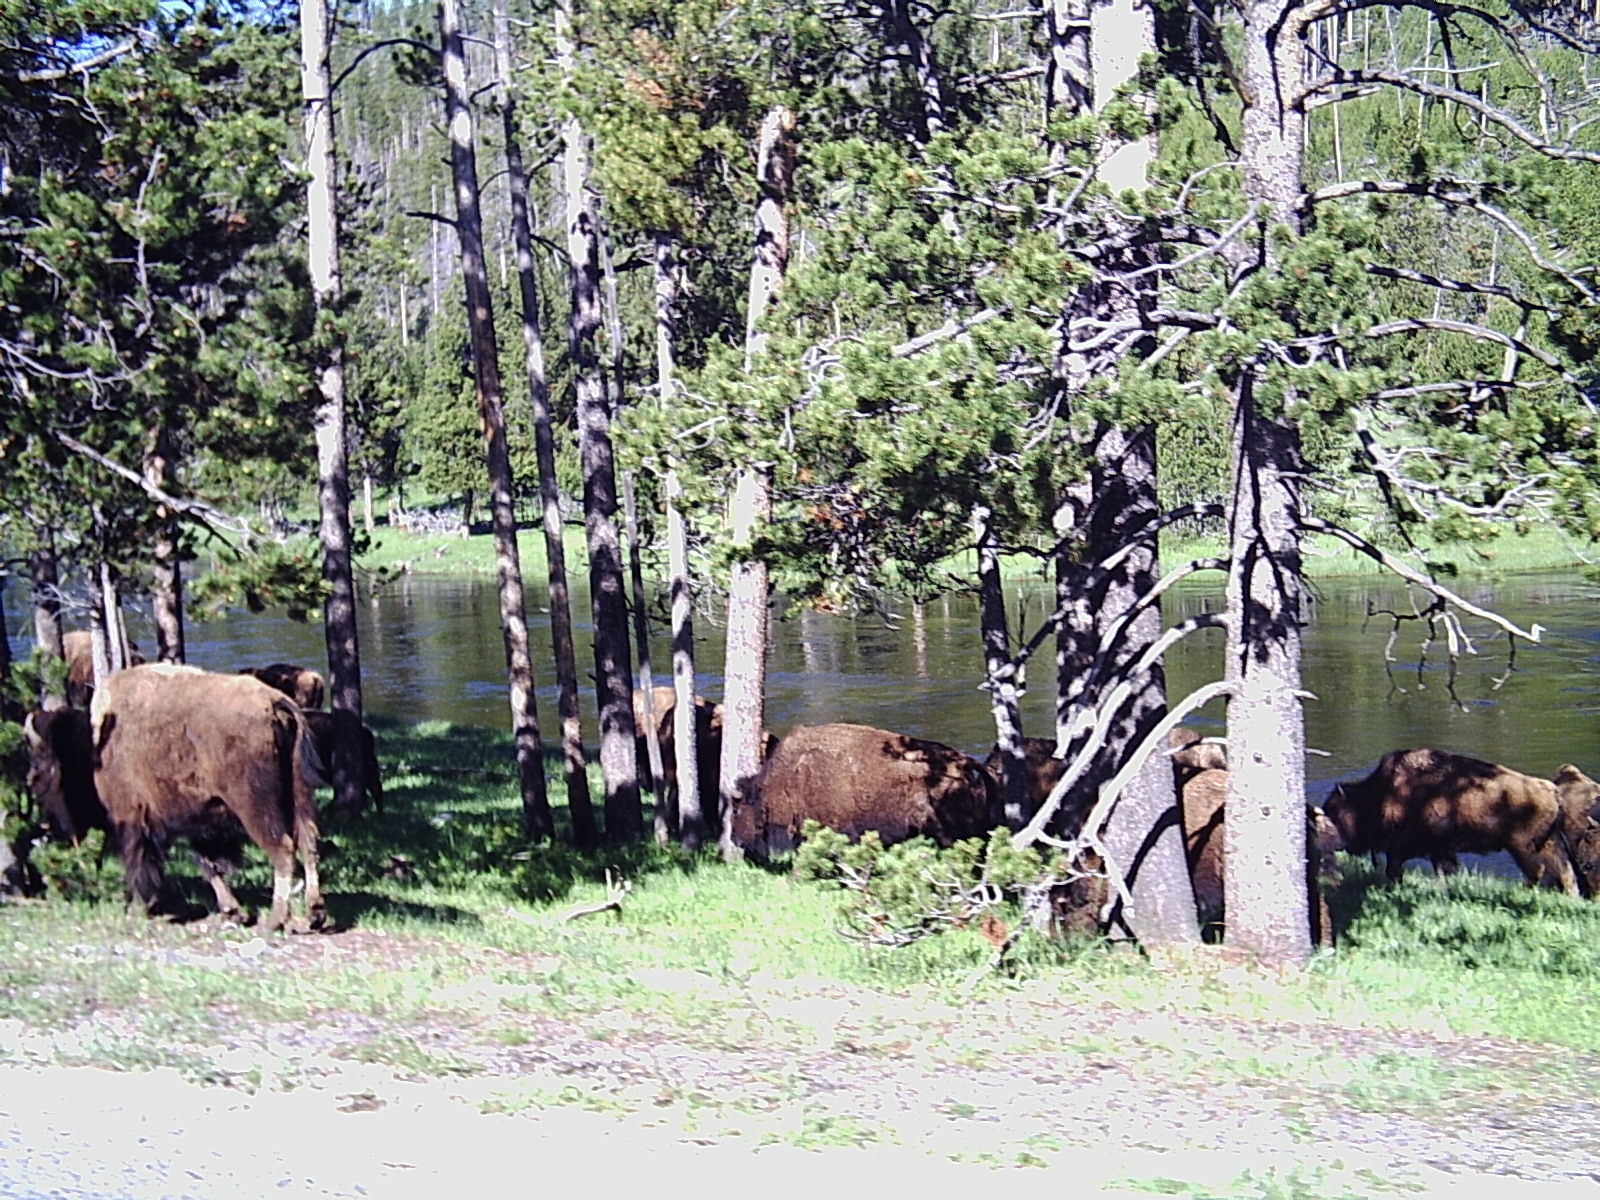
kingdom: Animalia
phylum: Chordata
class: Mammalia
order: Artiodactyla
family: Bovidae
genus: Bison
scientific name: Bison bison
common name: American bison
